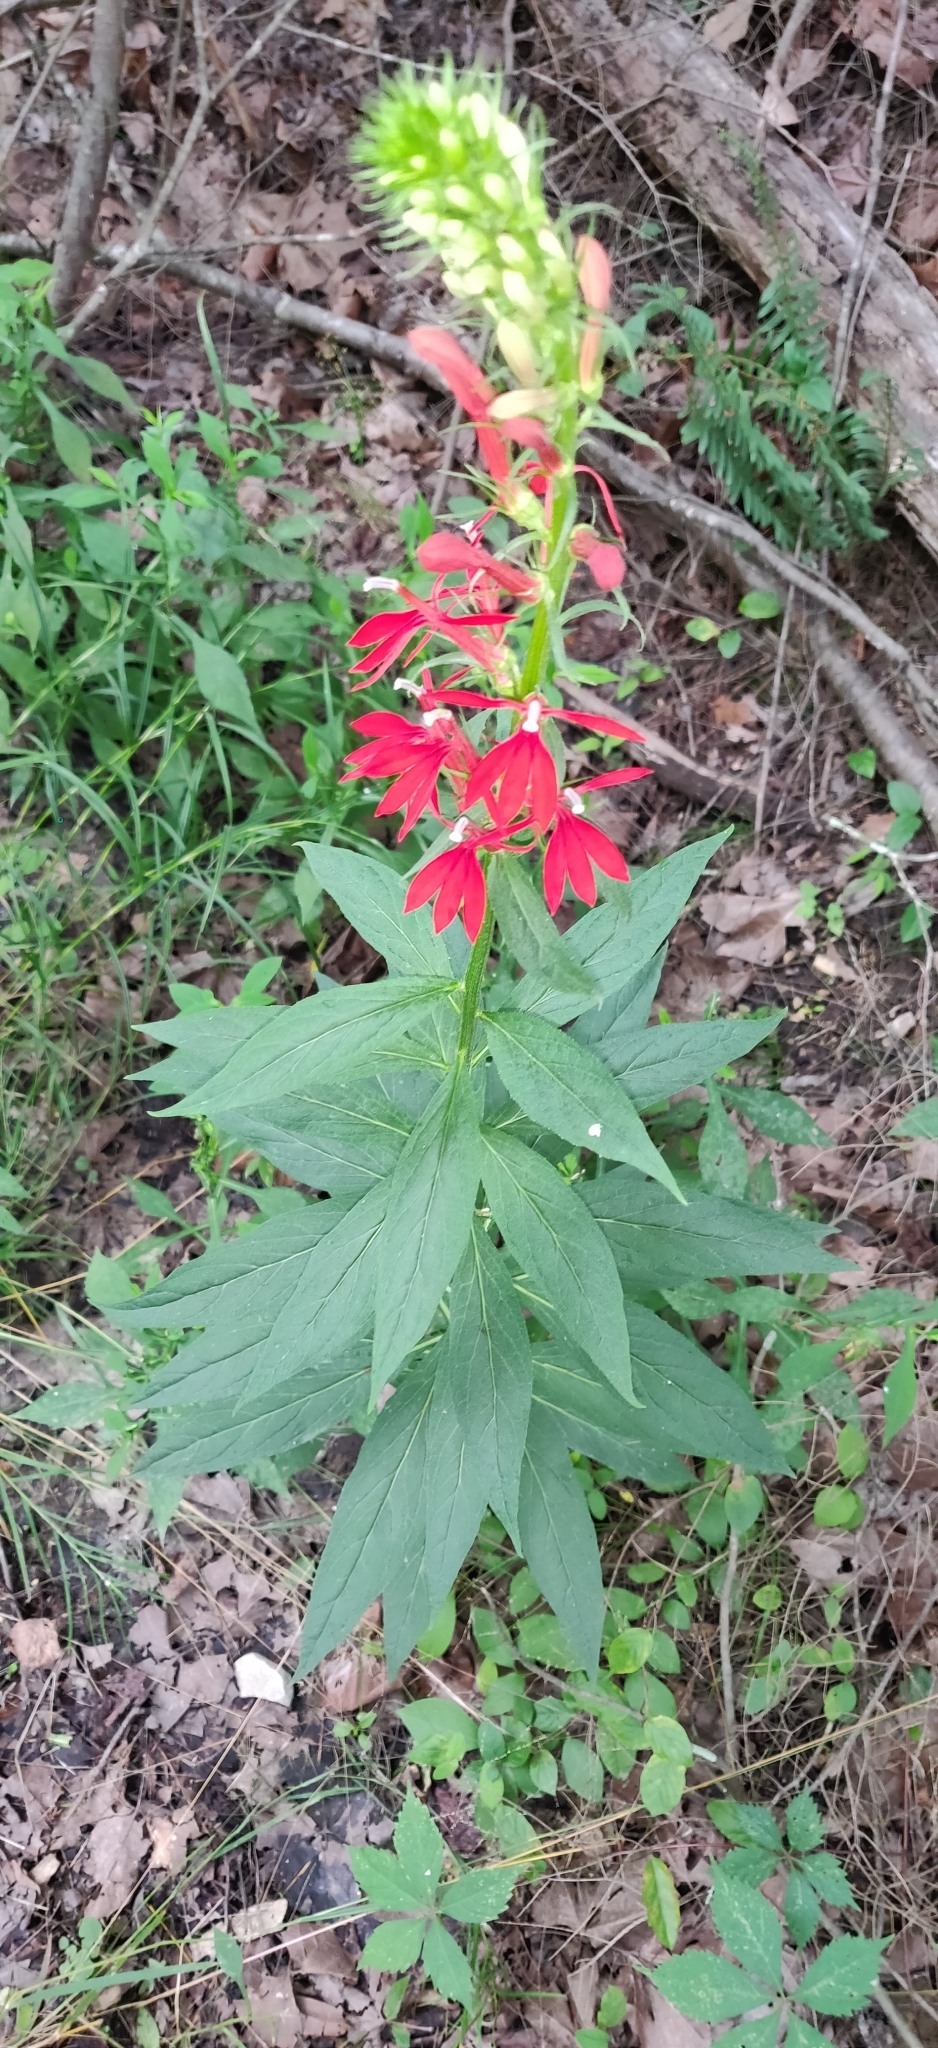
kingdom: Plantae
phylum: Tracheophyta
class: Magnoliopsida
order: Asterales
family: Campanulaceae
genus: Lobelia
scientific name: Lobelia cardinalis
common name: Cardinal flower
